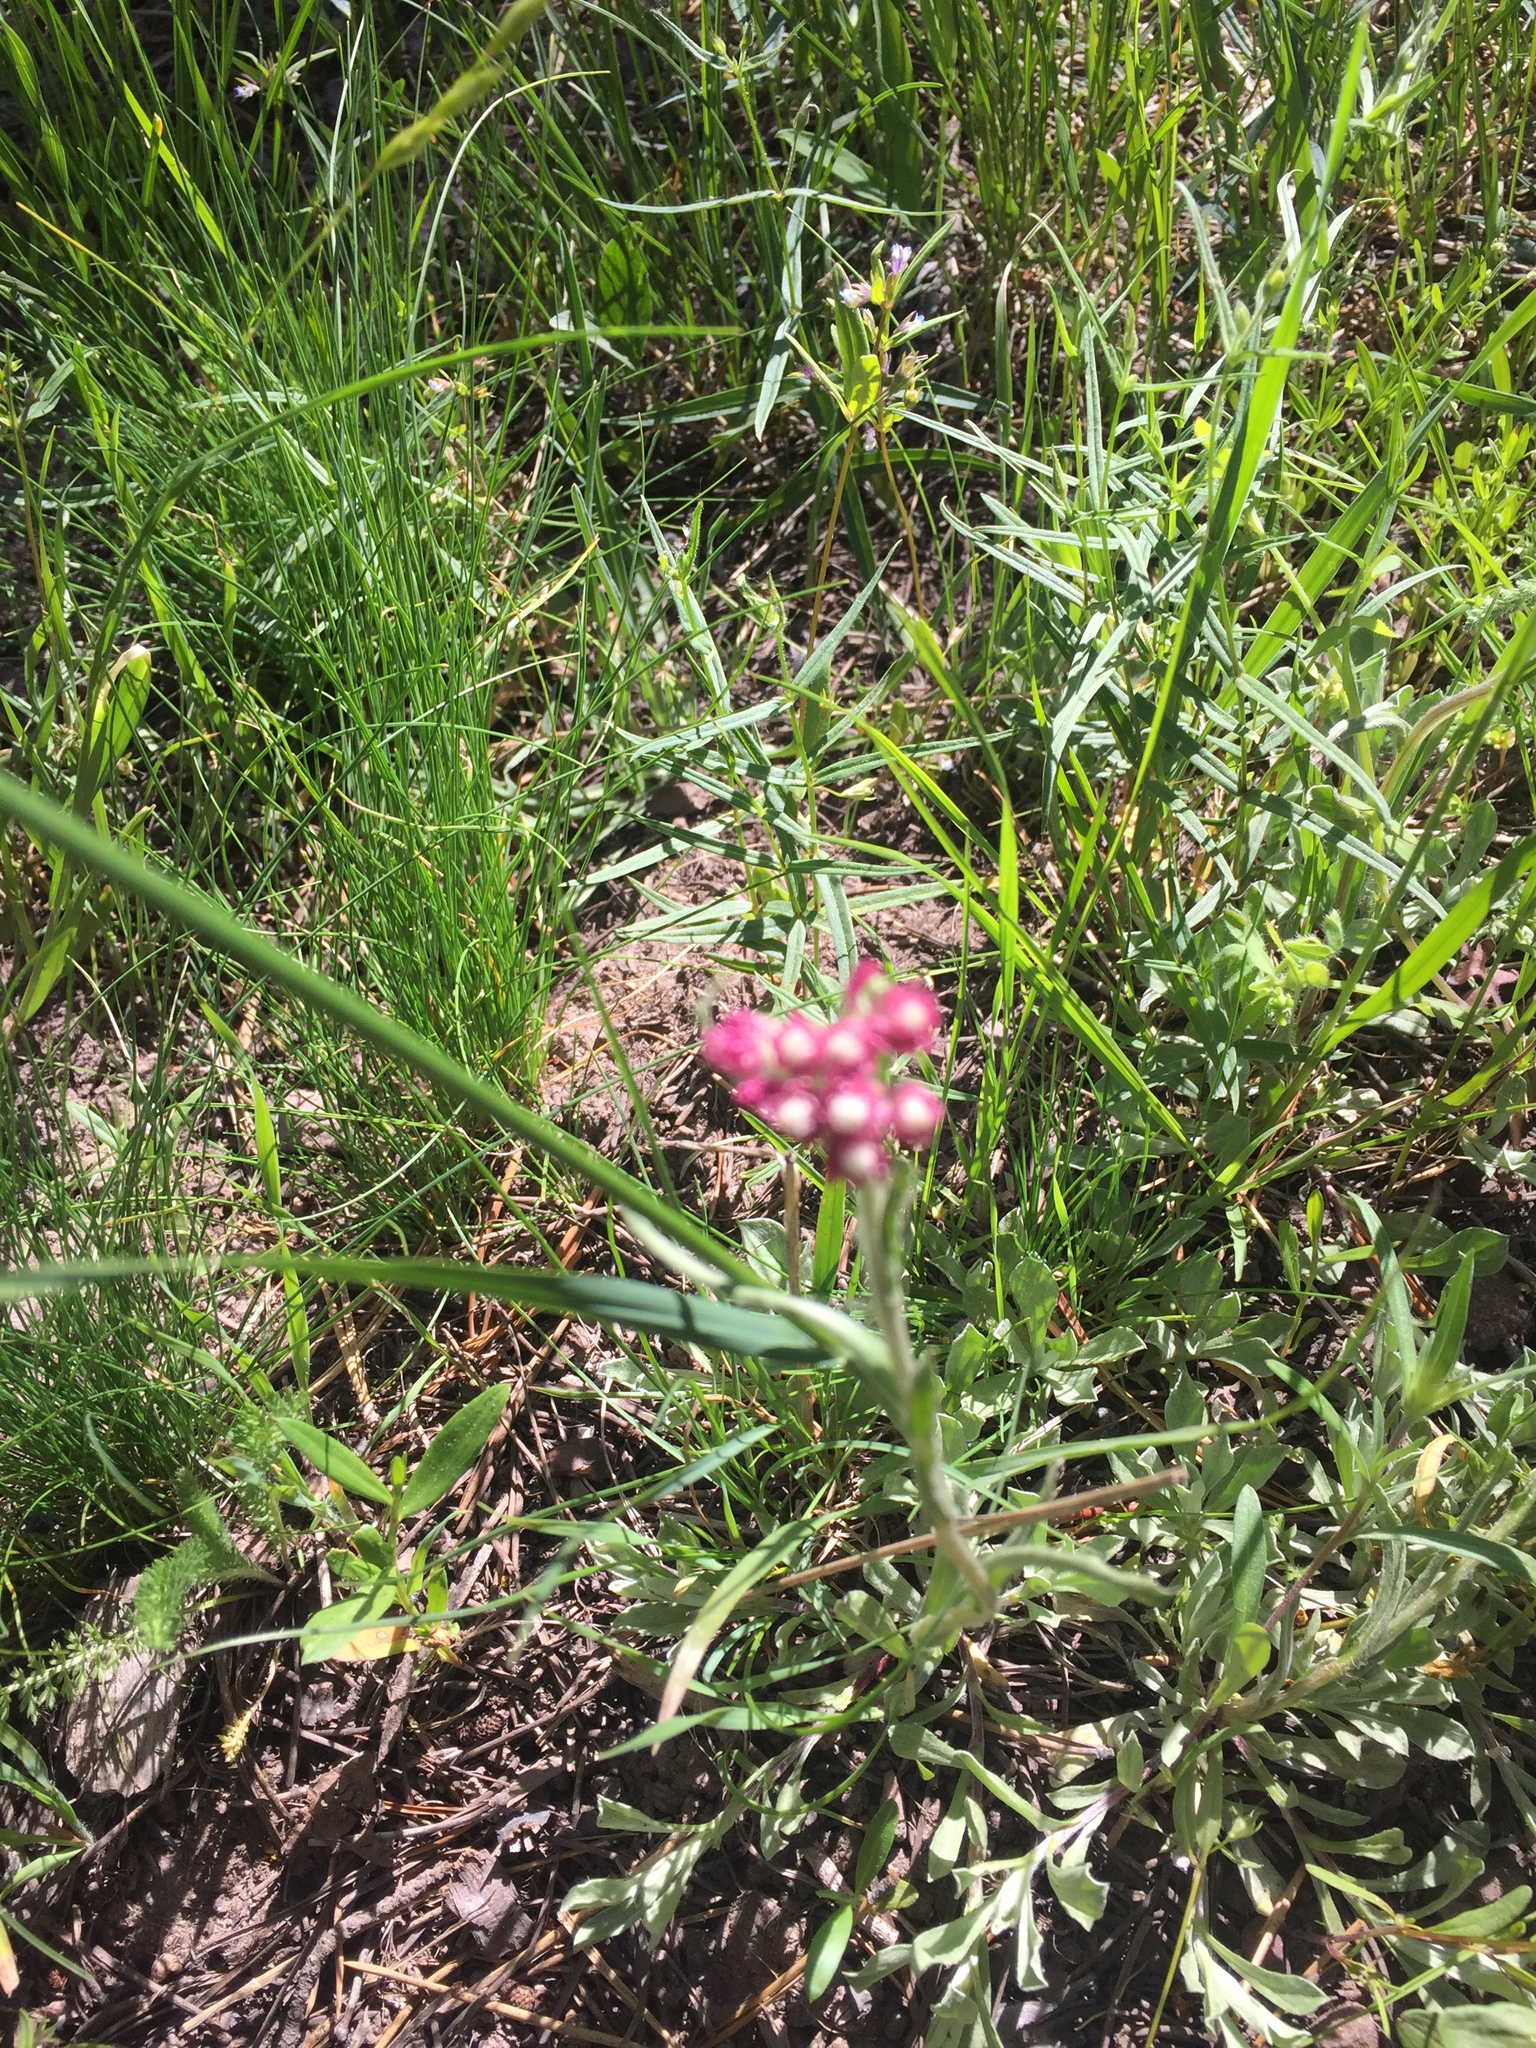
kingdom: Plantae
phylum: Tracheophyta
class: Magnoliopsida
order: Asterales
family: Asteraceae
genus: Antennaria
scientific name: Antennaria rosea
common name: Rosy pussytoes
